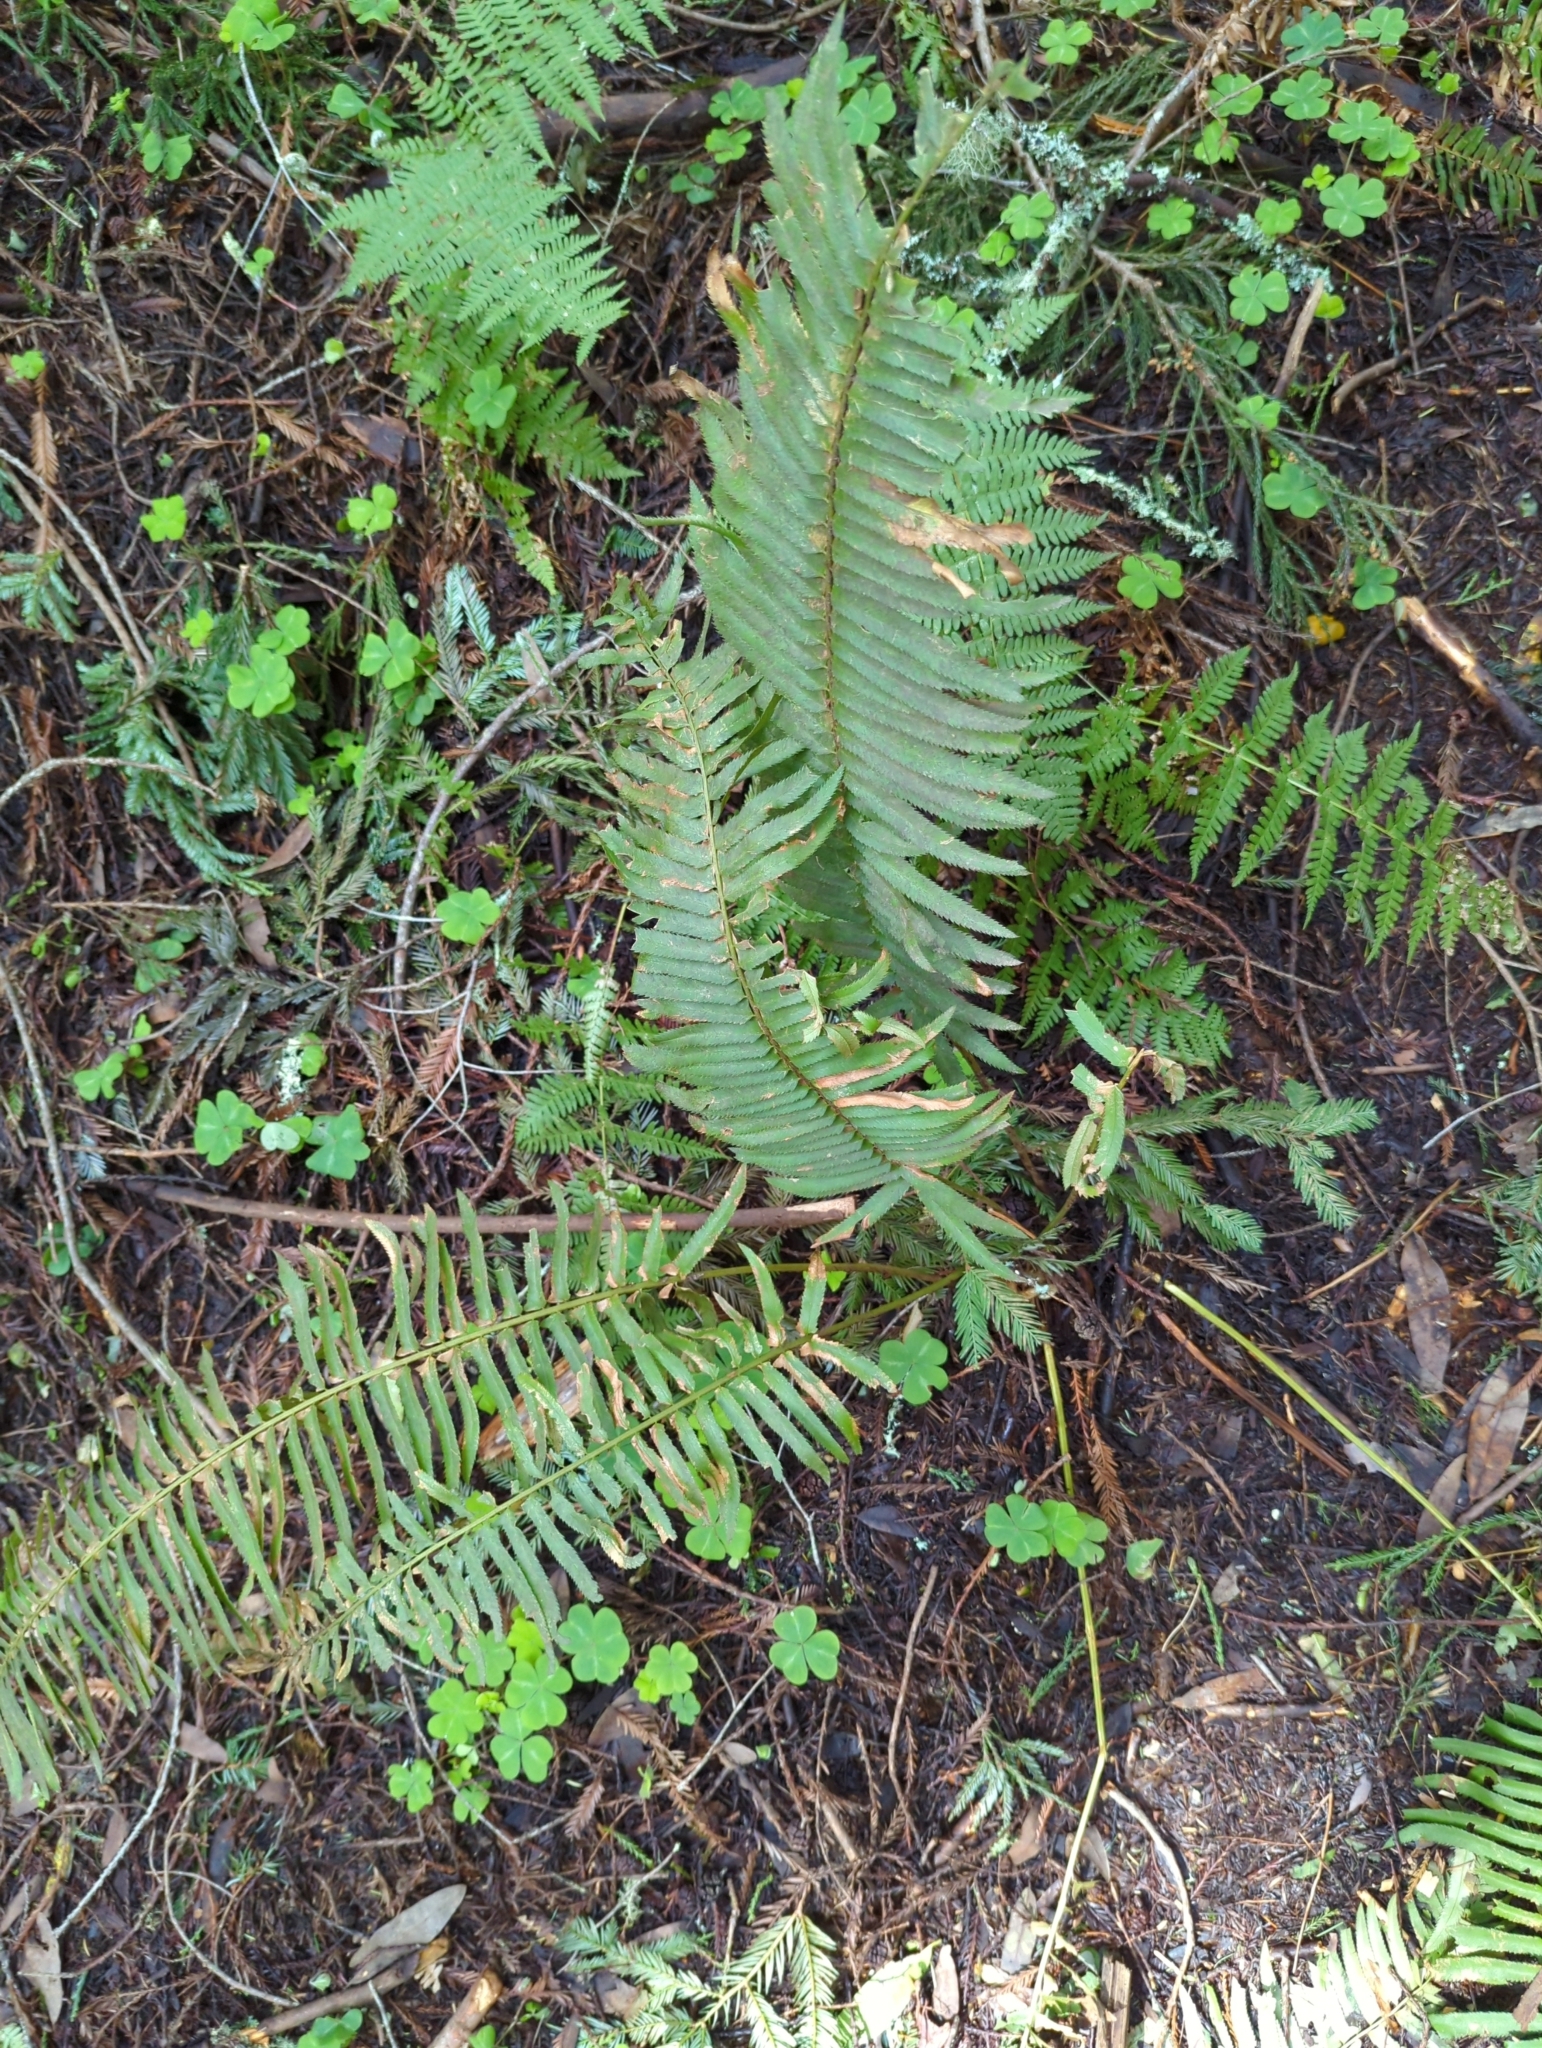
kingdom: Plantae
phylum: Tracheophyta
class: Polypodiopsida
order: Polypodiales
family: Dryopteridaceae
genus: Polystichum
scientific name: Polystichum munitum
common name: Western sword-fern
